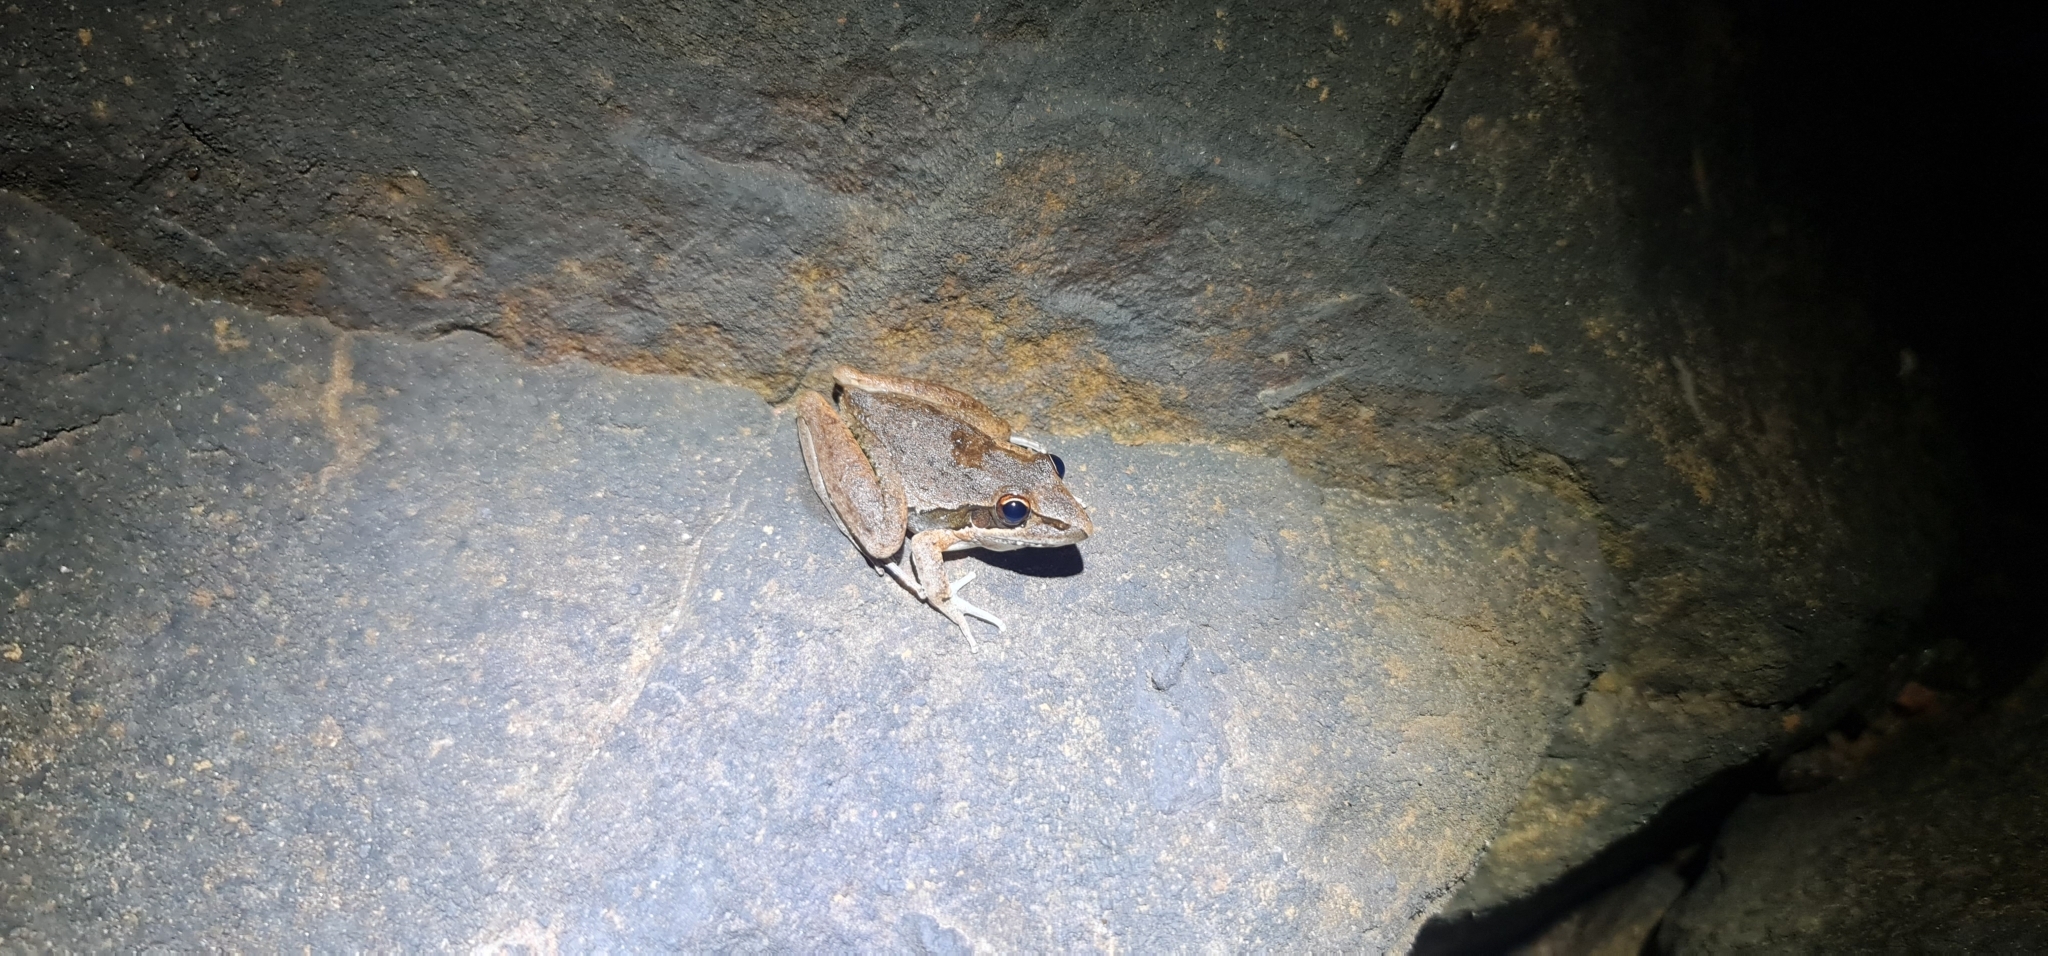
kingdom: Animalia
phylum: Chordata
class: Amphibia
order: Anura
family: Pelodryadidae
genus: Litoria
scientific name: Litoria watjulumensis
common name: Wotjulum frog
